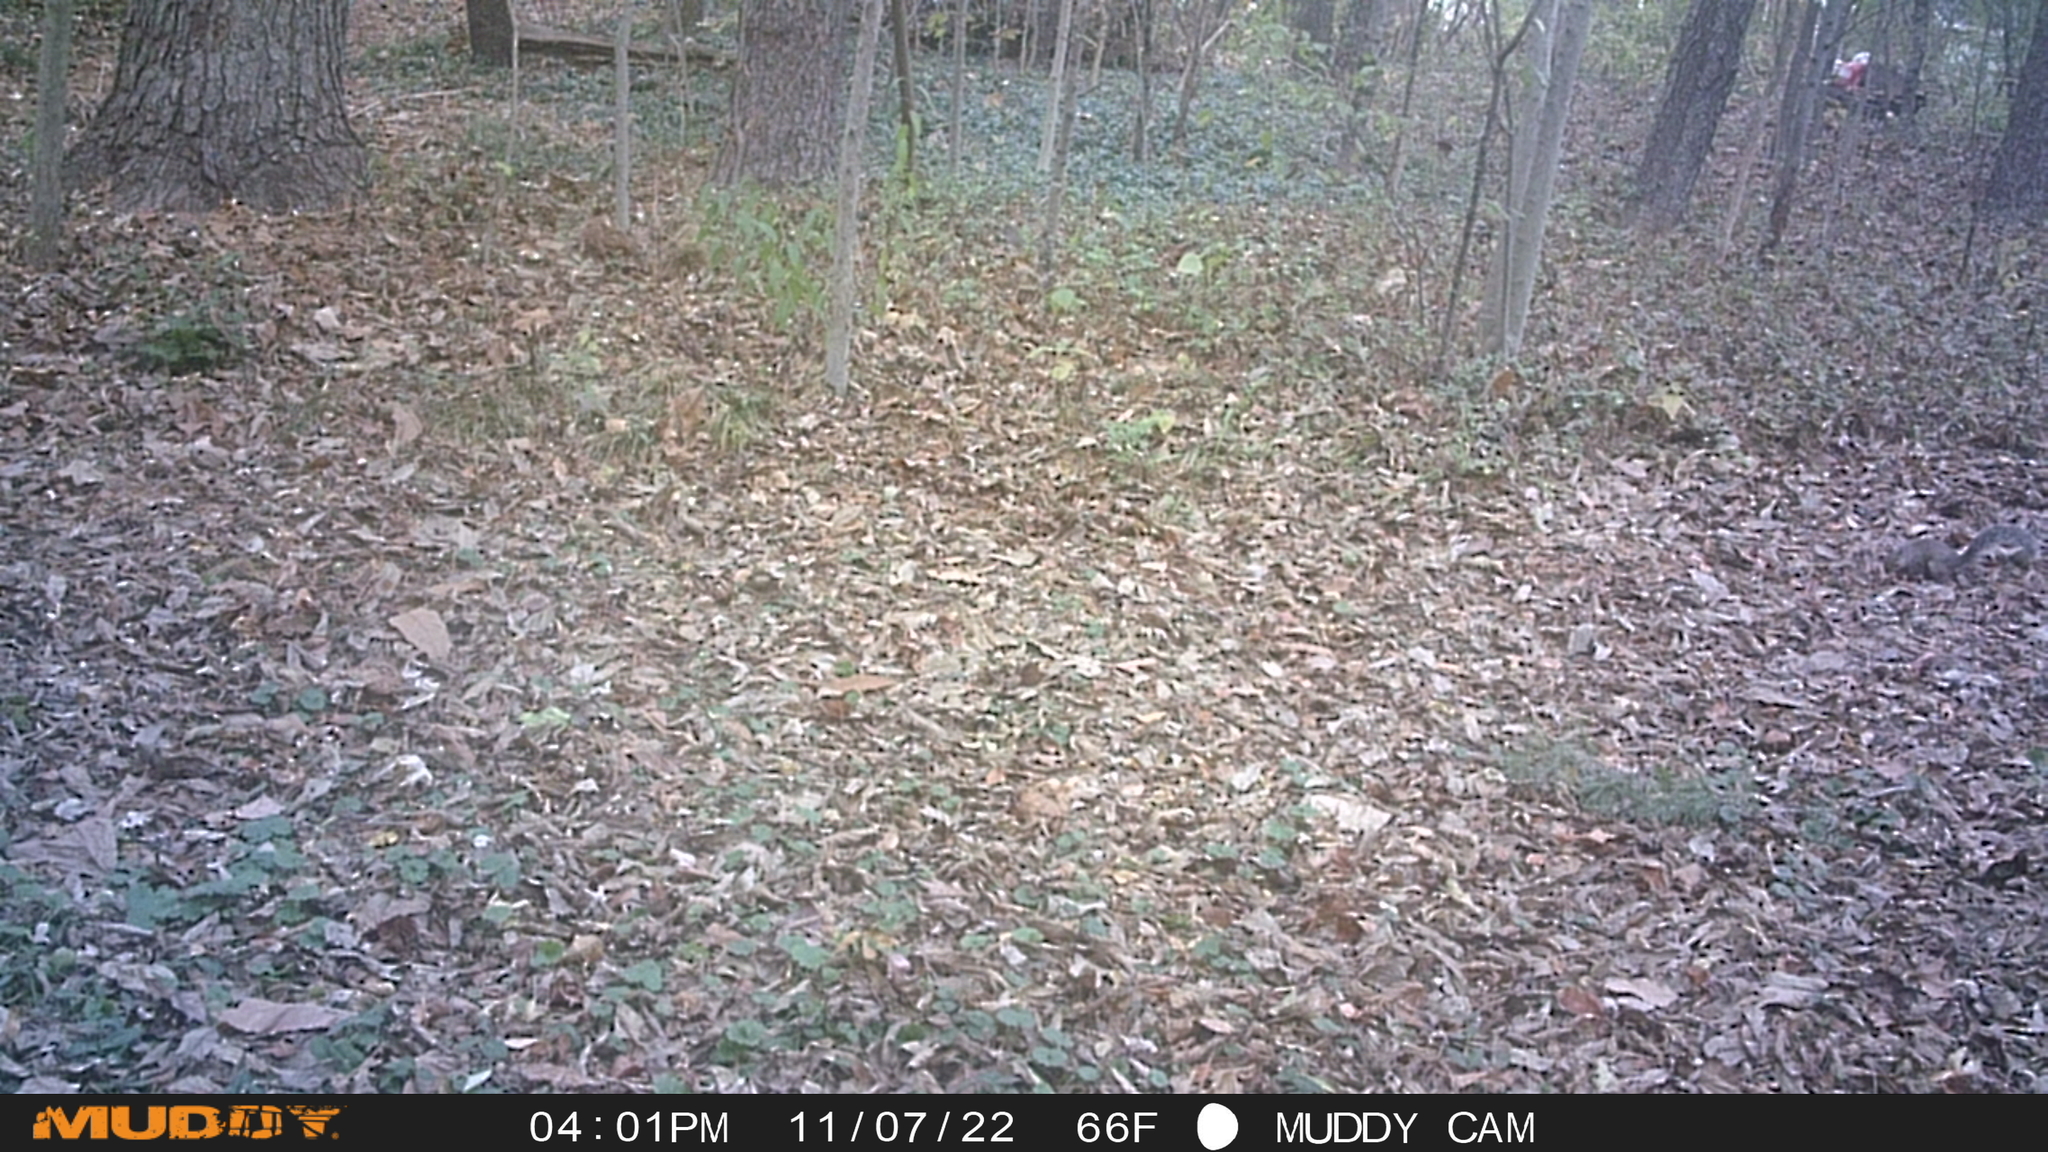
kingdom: Animalia
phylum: Chordata
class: Mammalia
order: Rodentia
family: Sciuridae
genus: Sciurus
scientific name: Sciurus carolinensis
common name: Eastern gray squirrel
